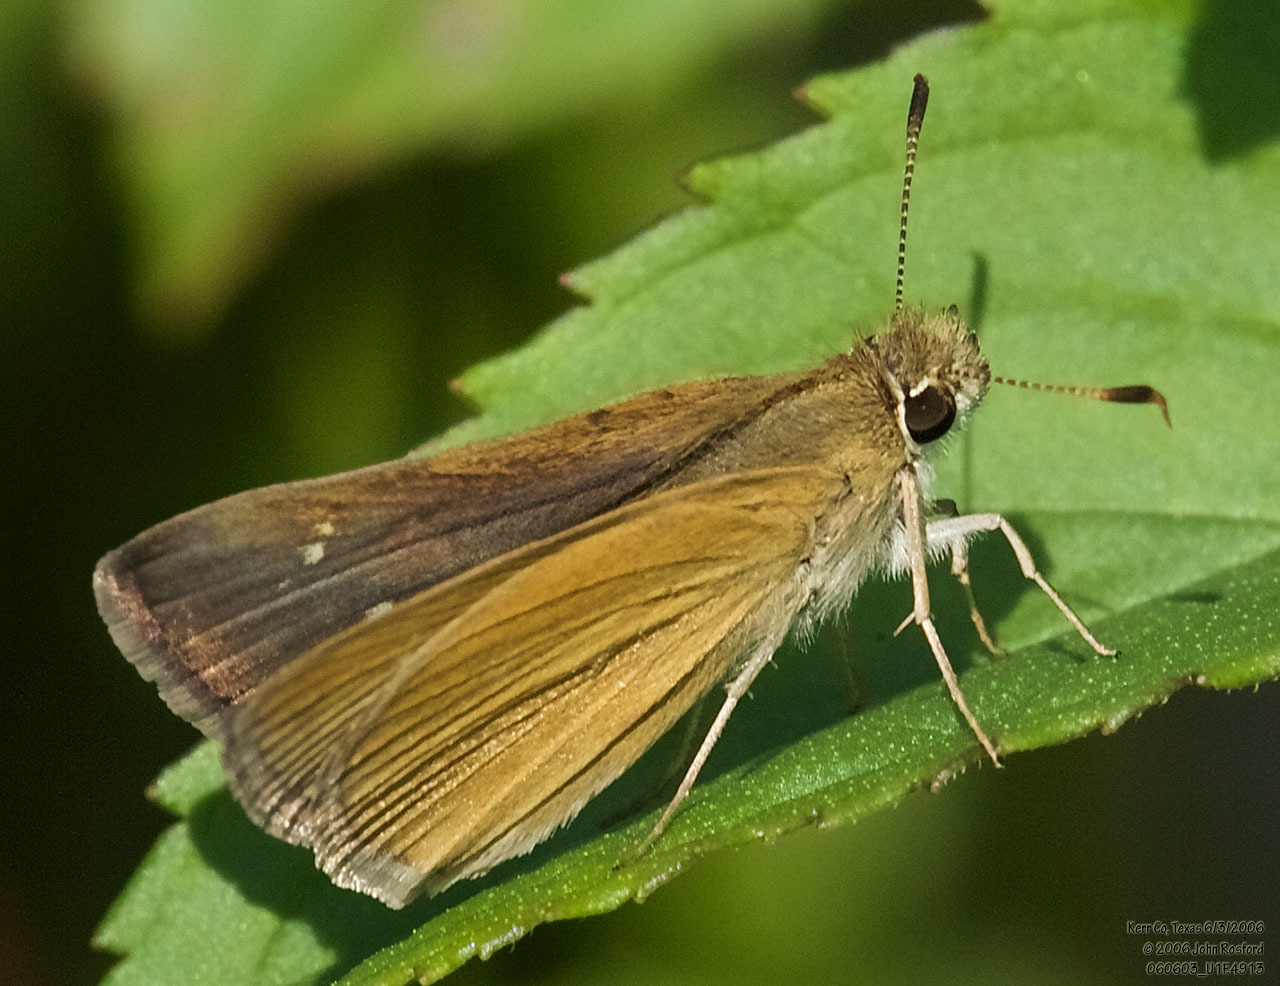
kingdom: Animalia
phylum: Arthropoda
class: Insecta
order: Lepidoptera
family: Hesperiidae
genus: Nastra
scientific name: Nastra julia
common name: Julia's skipper
